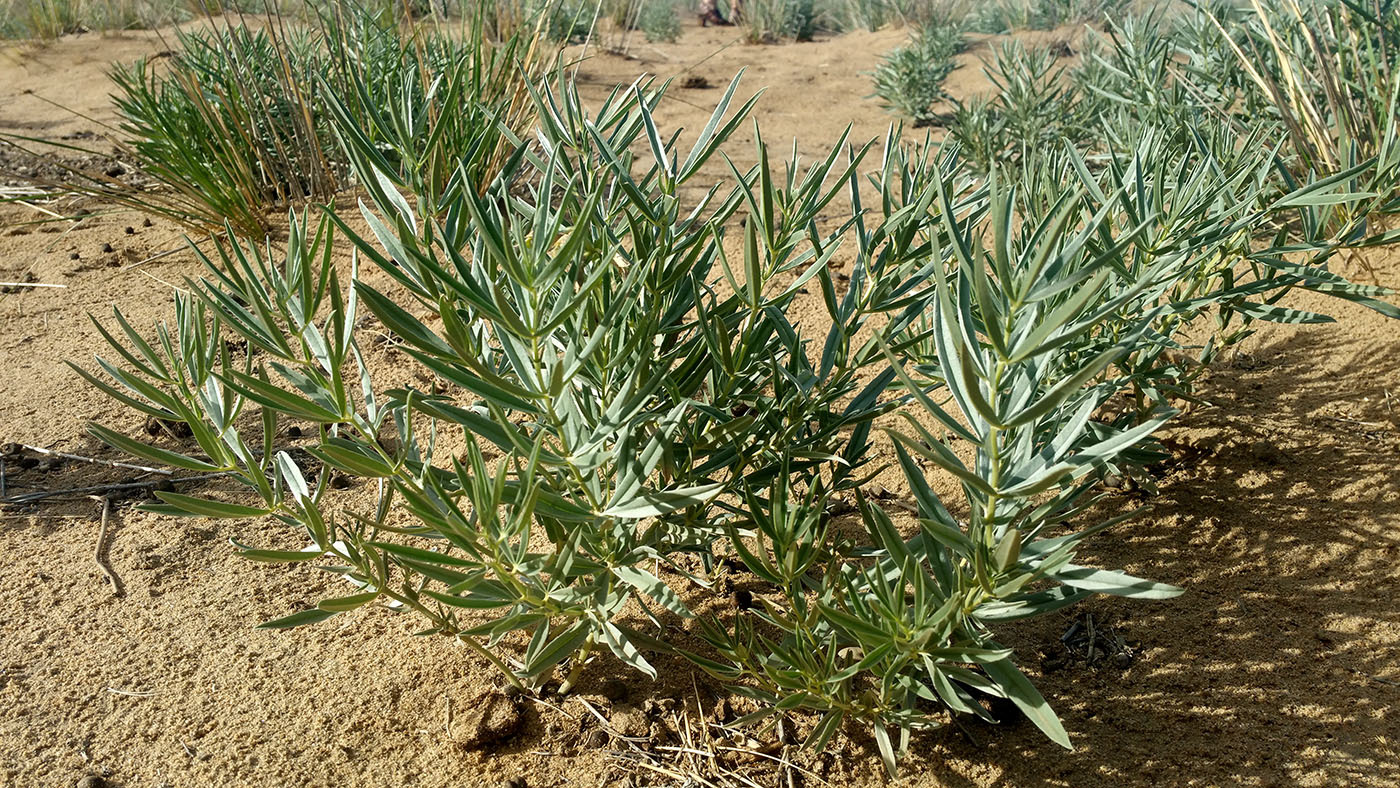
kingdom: Plantae
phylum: Tracheophyta
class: Magnoliopsida
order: Fabales
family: Fabaceae
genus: Thermopsis
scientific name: Thermopsis mongolica
